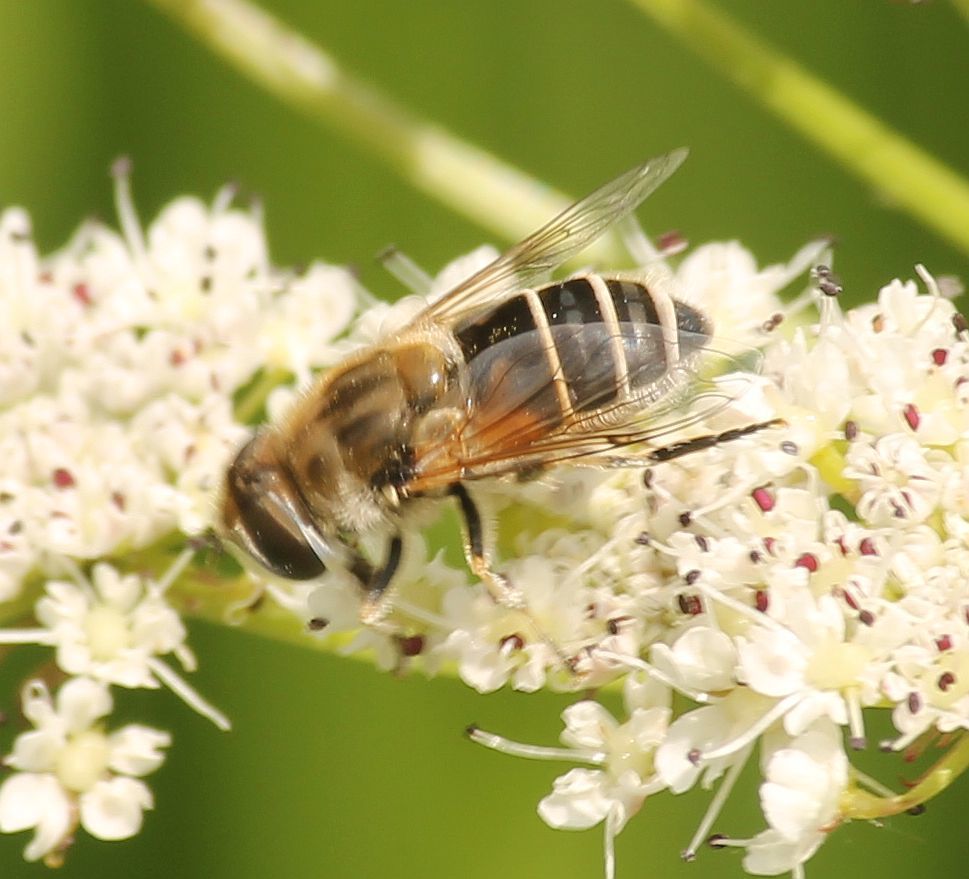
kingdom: Animalia
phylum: Arthropoda
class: Insecta
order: Diptera
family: Syrphidae
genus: Eristalis
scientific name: Eristalis
